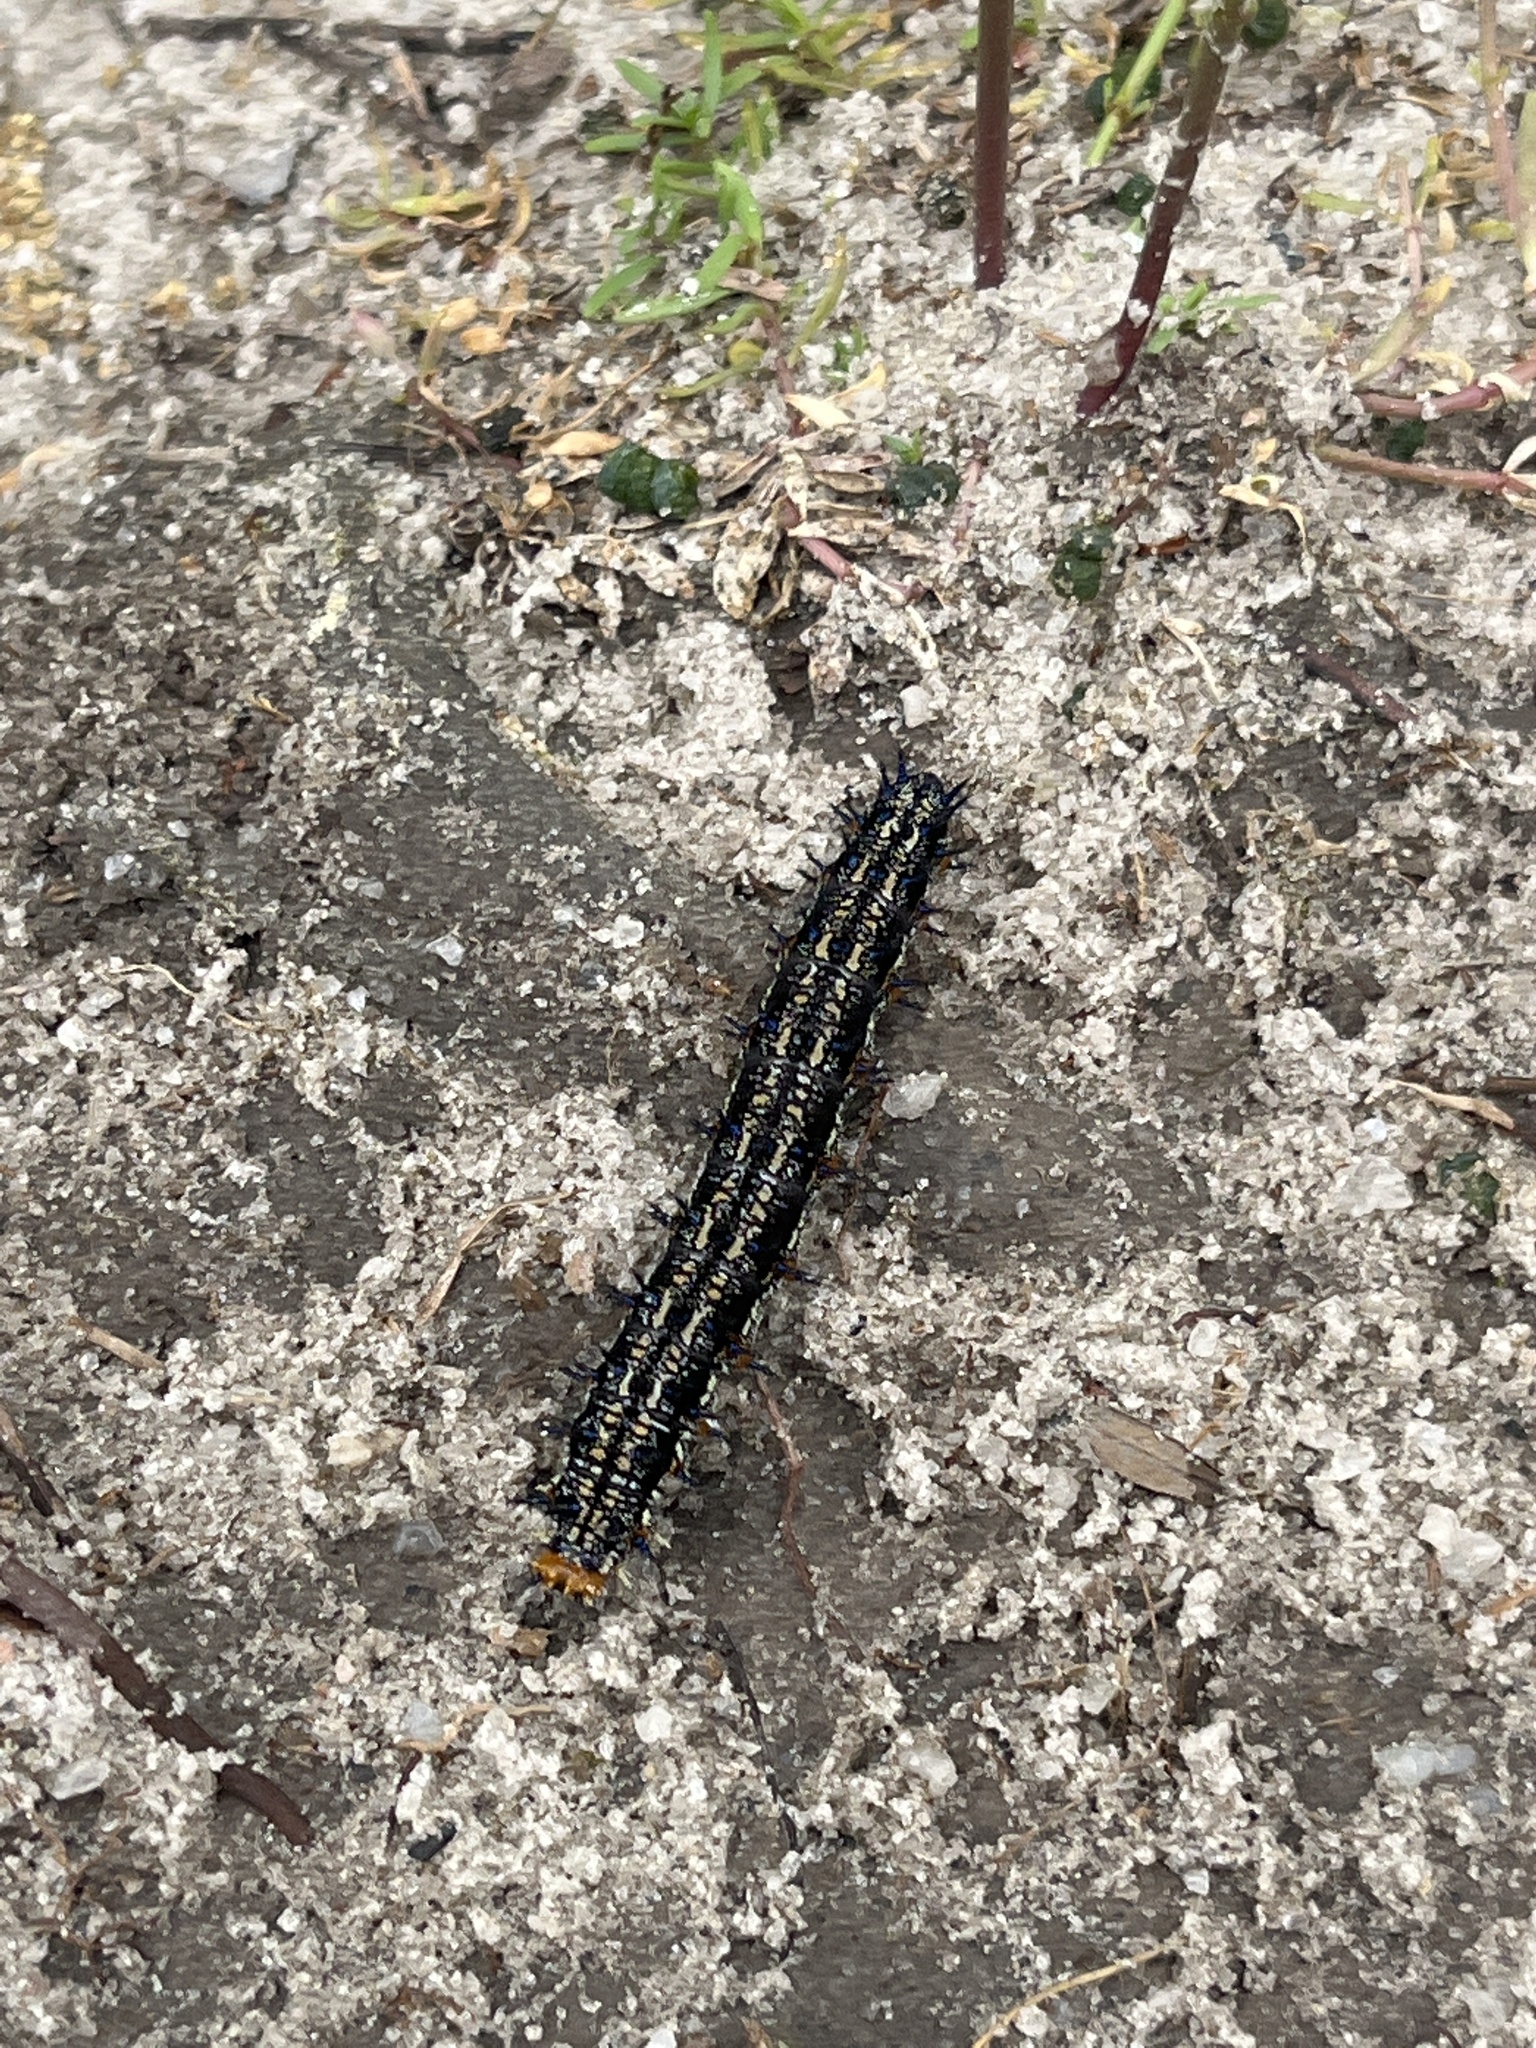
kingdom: Animalia
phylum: Arthropoda
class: Insecta
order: Lepidoptera
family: Nymphalidae
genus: Junonia
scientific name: Junonia coenia
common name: Common buckeye
